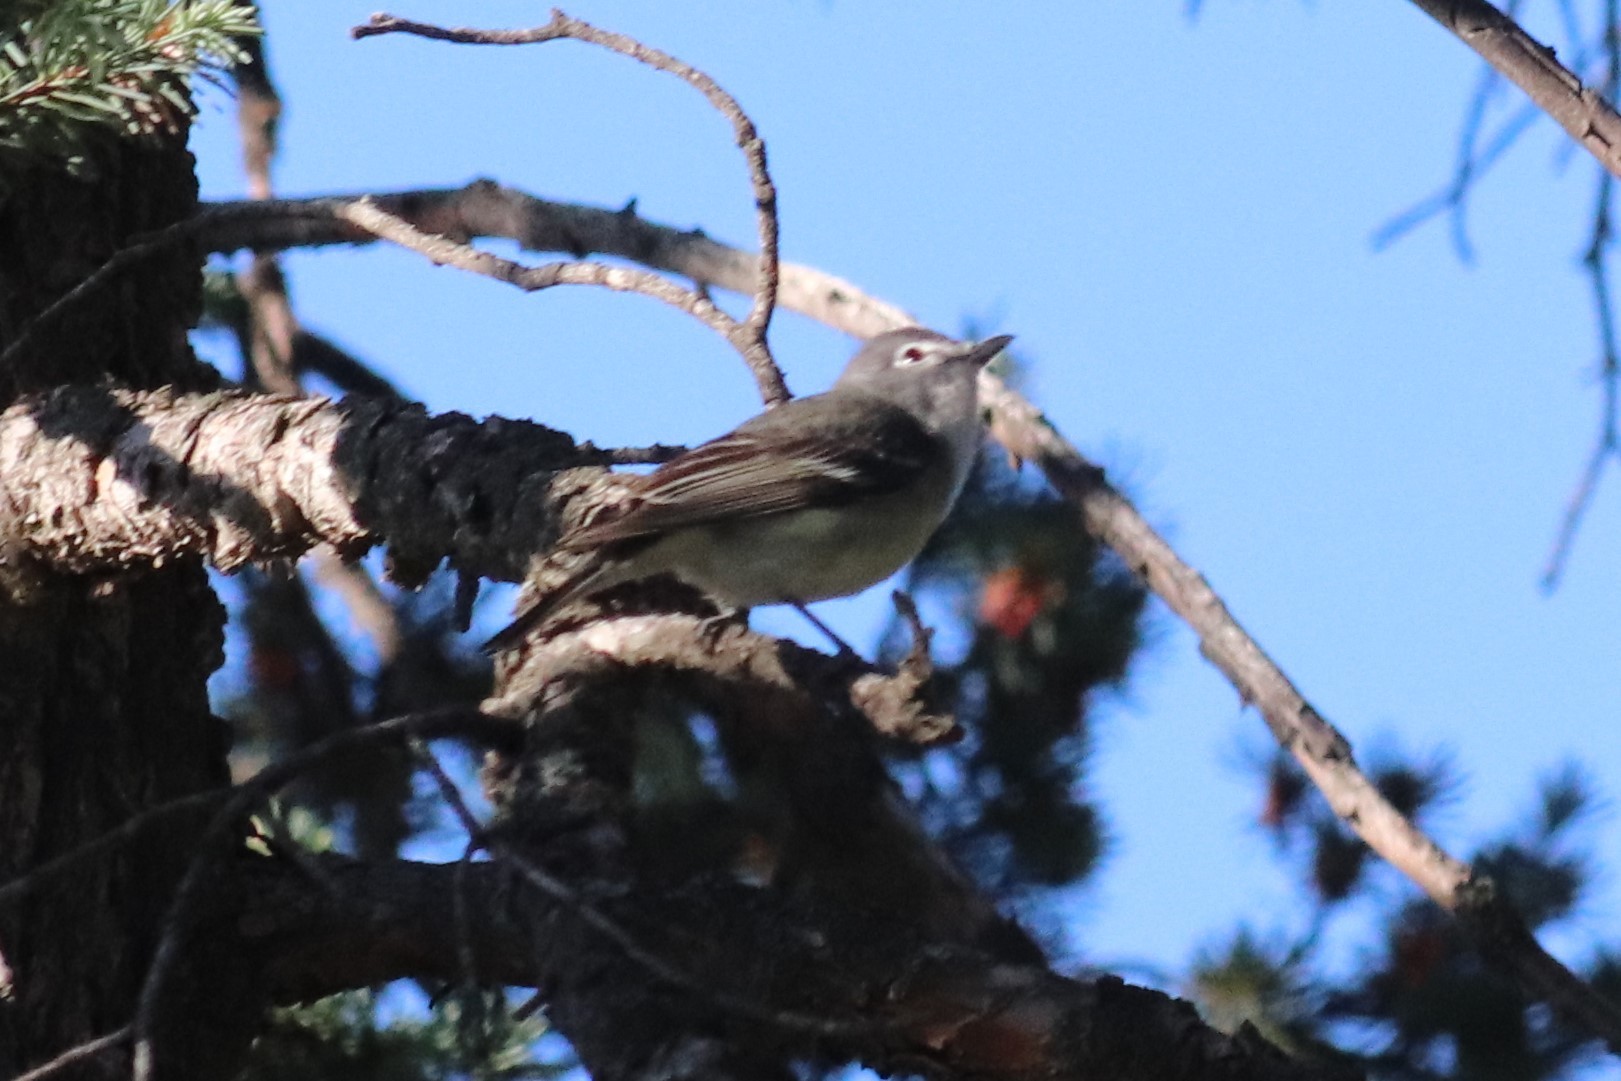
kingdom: Animalia
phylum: Chordata
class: Aves
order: Passeriformes
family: Vireonidae
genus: Vireo
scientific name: Vireo plumbeus
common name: Plumbeous vireo
